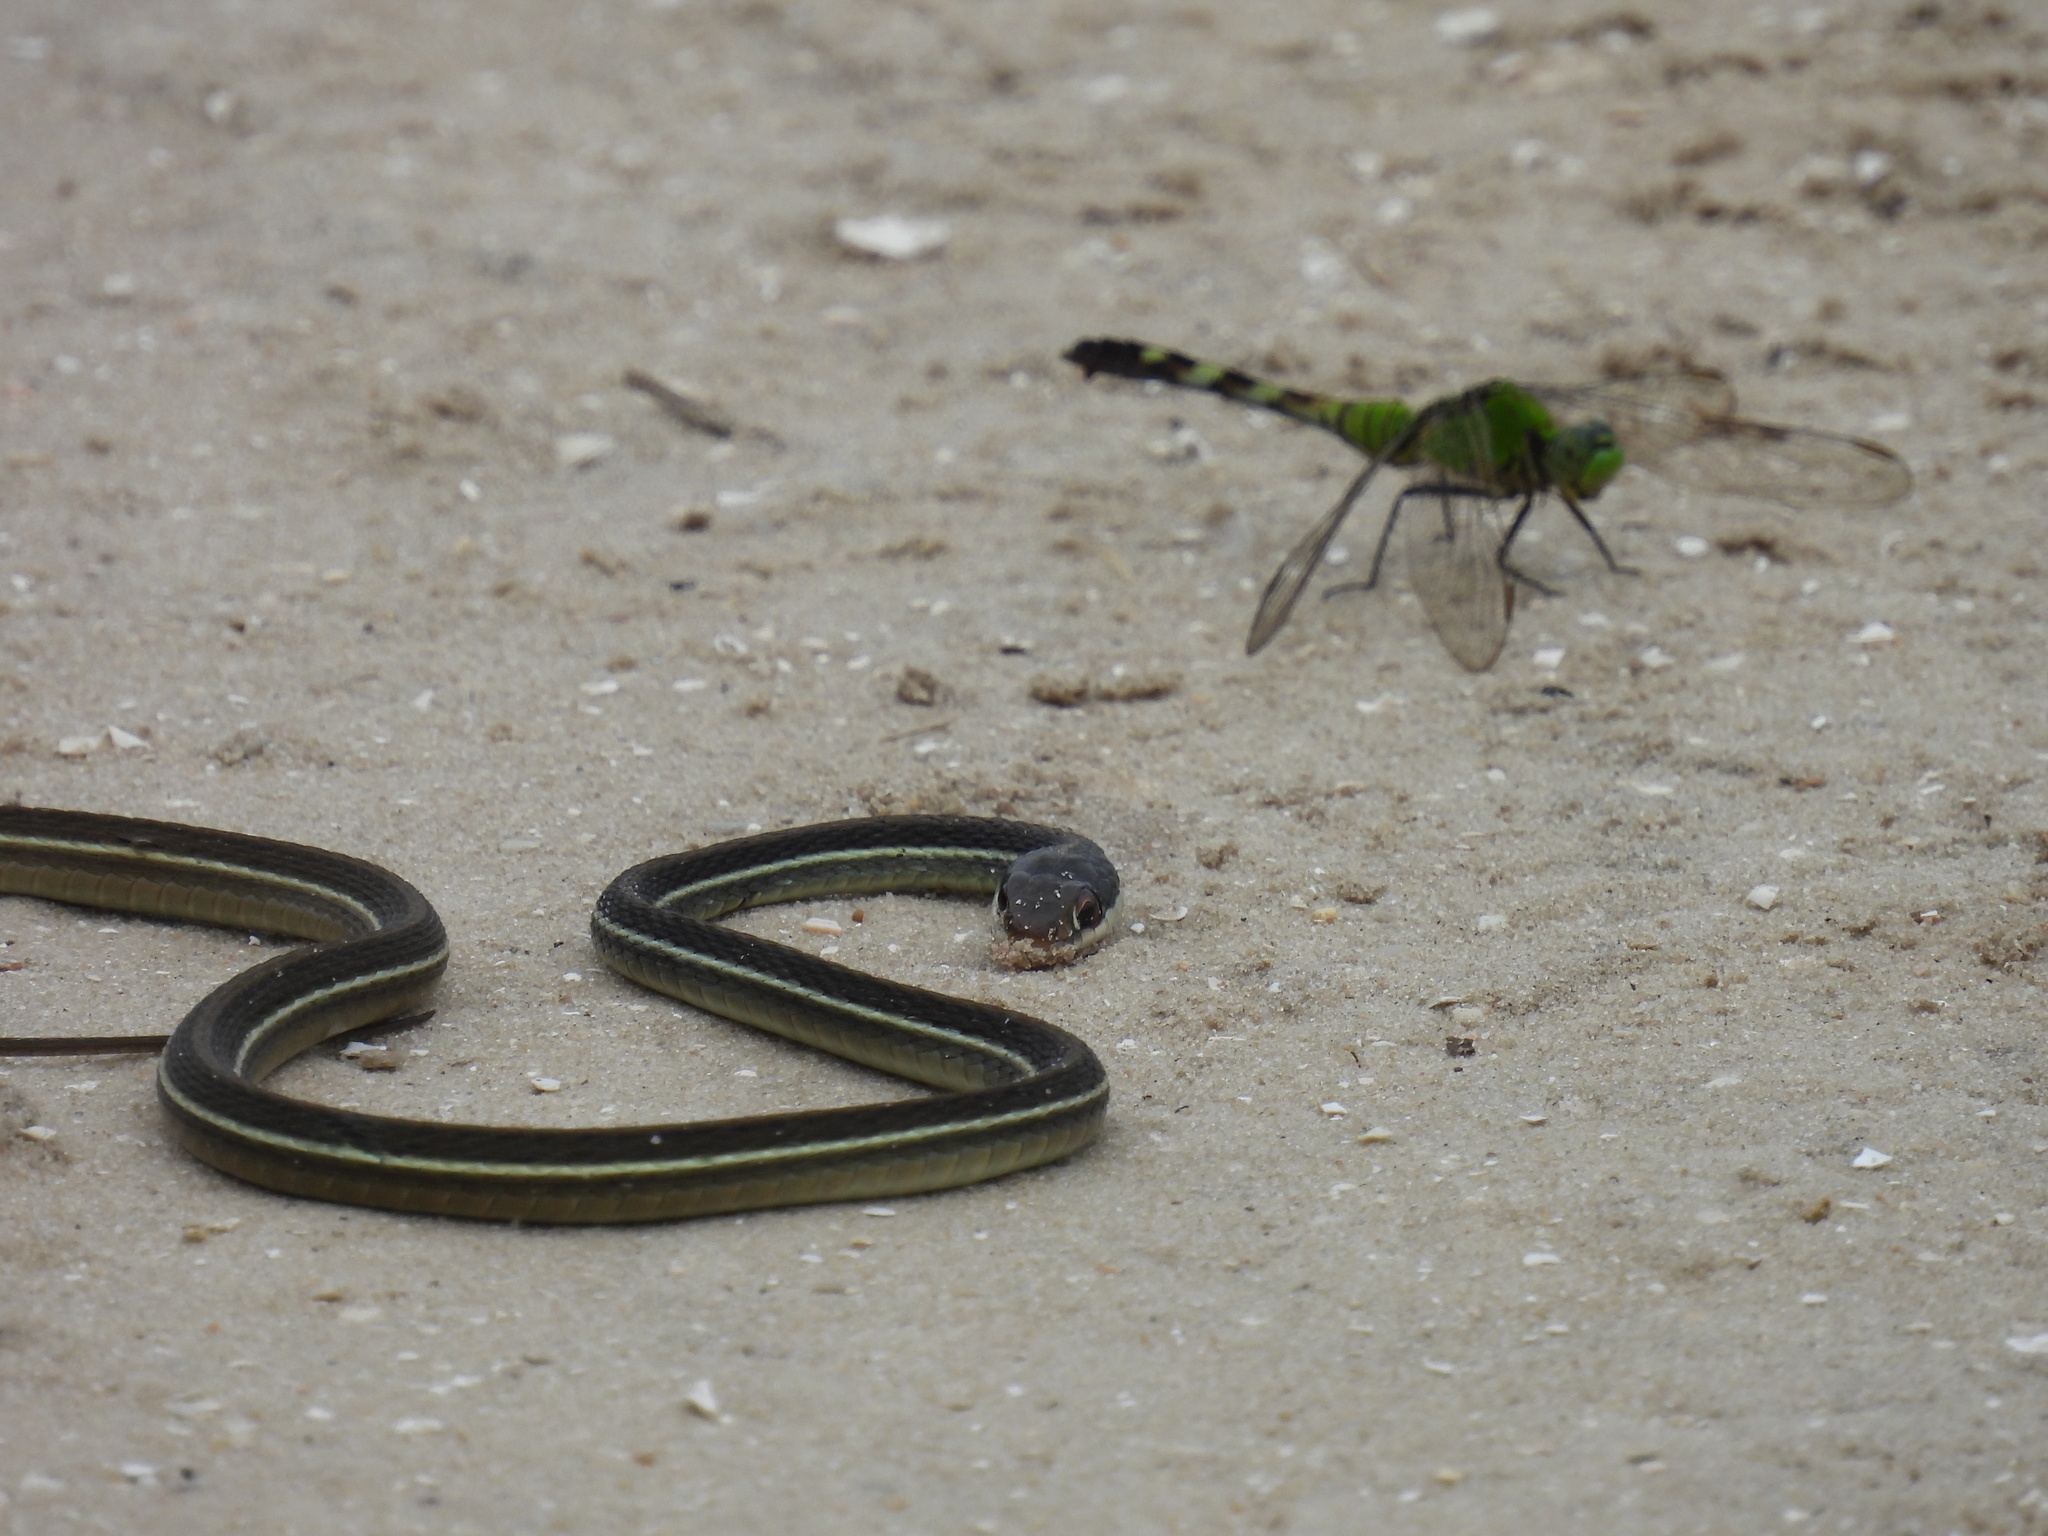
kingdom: Animalia
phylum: Chordata
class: Squamata
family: Colubridae
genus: Thamnophis
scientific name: Thamnophis saurita
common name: Eastern ribbonsnake
